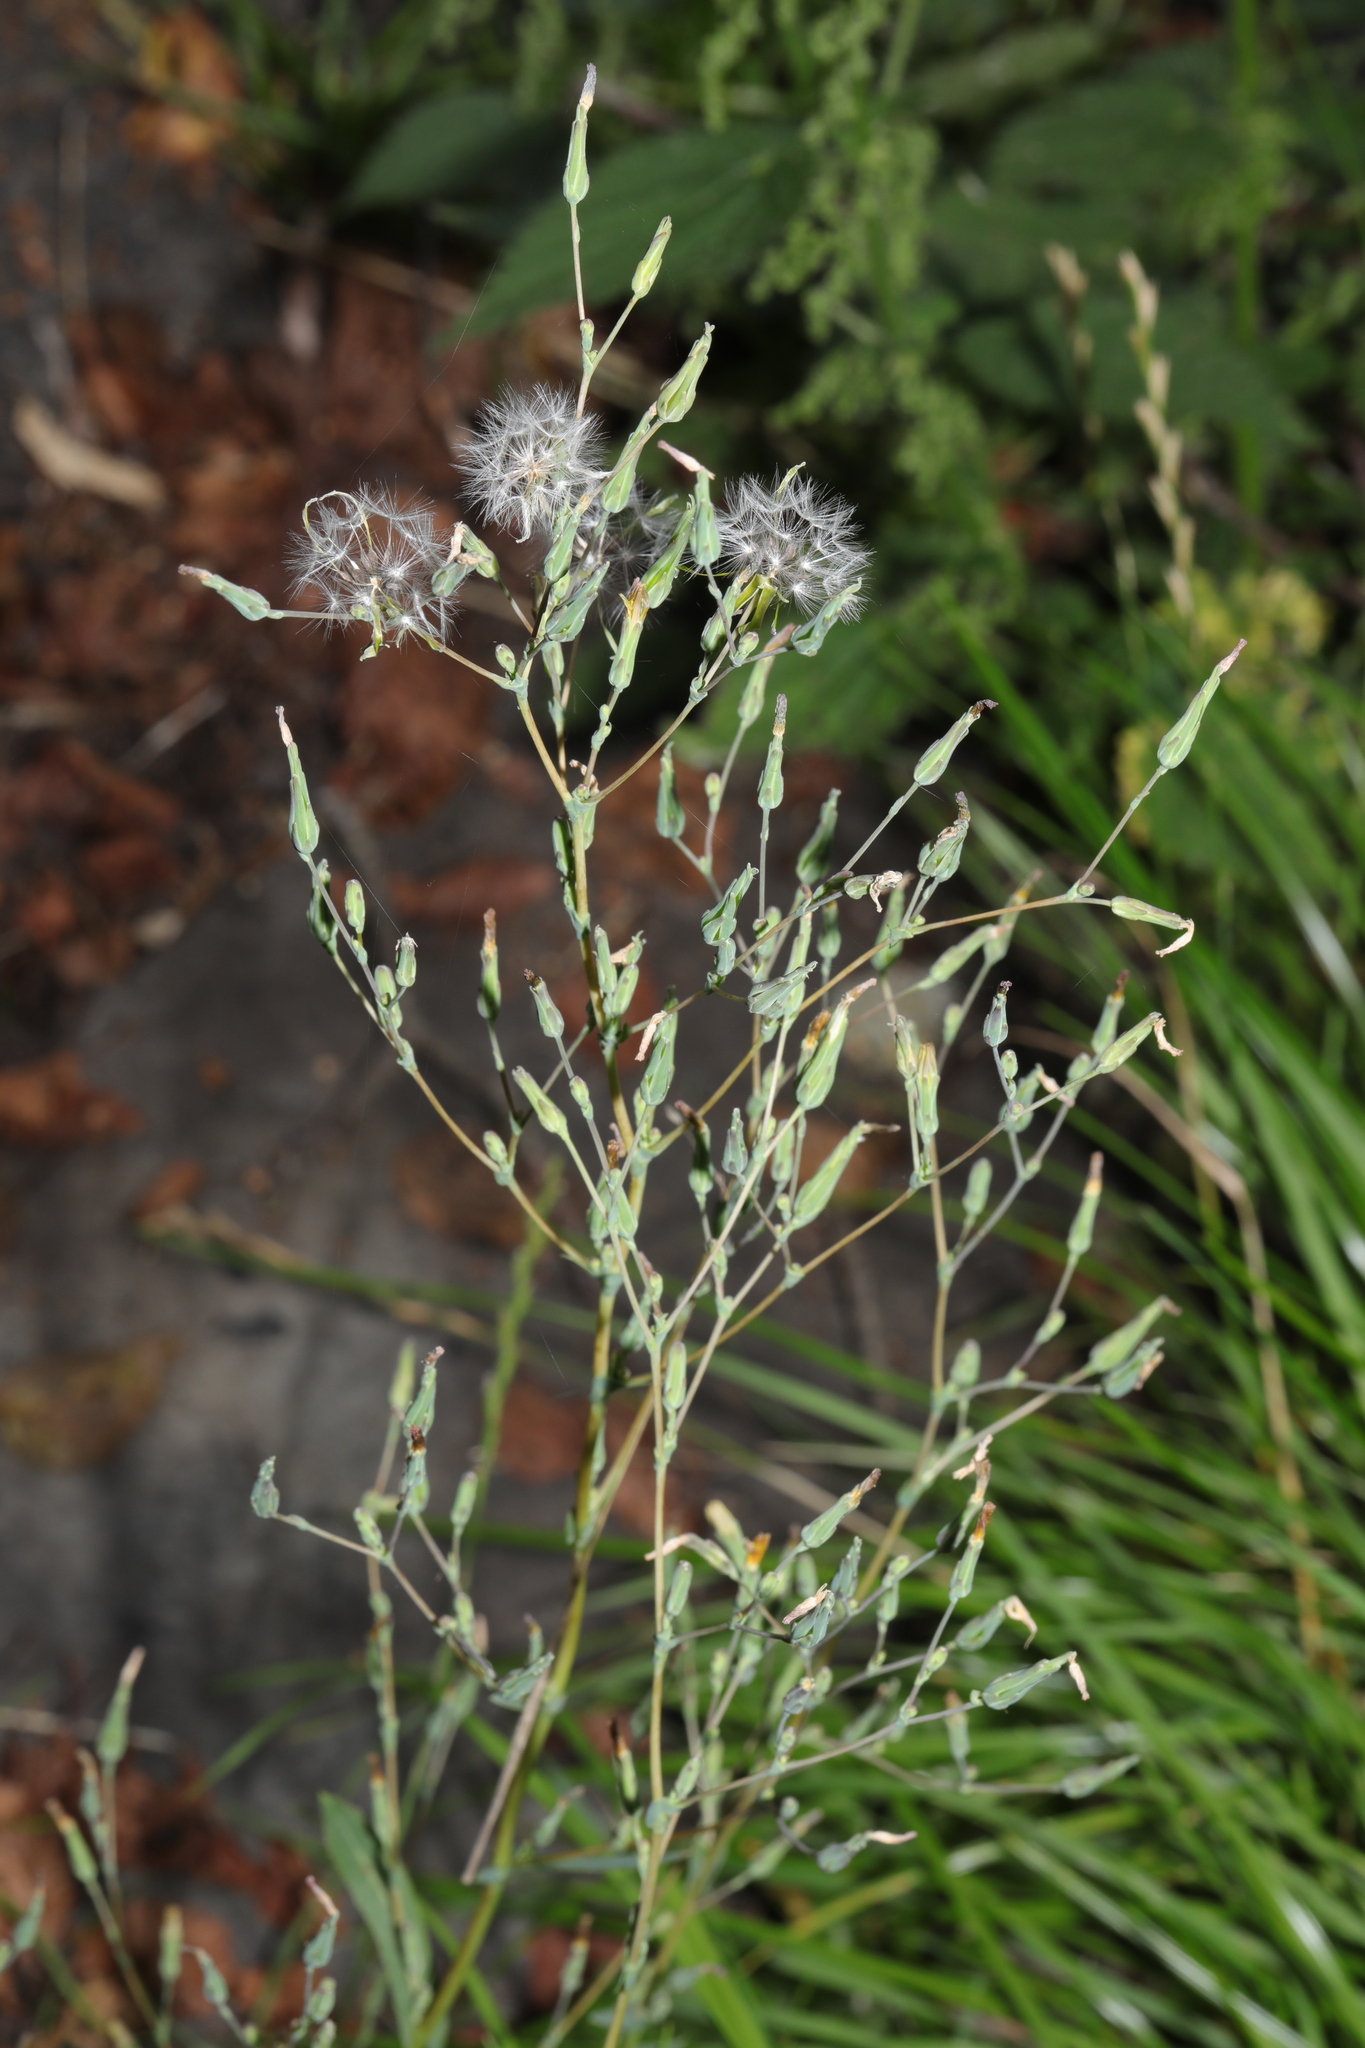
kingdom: Plantae
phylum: Tracheophyta
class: Magnoliopsida
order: Asterales
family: Asteraceae
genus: Lactuca
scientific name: Lactuca serriola
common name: Prickly lettuce
